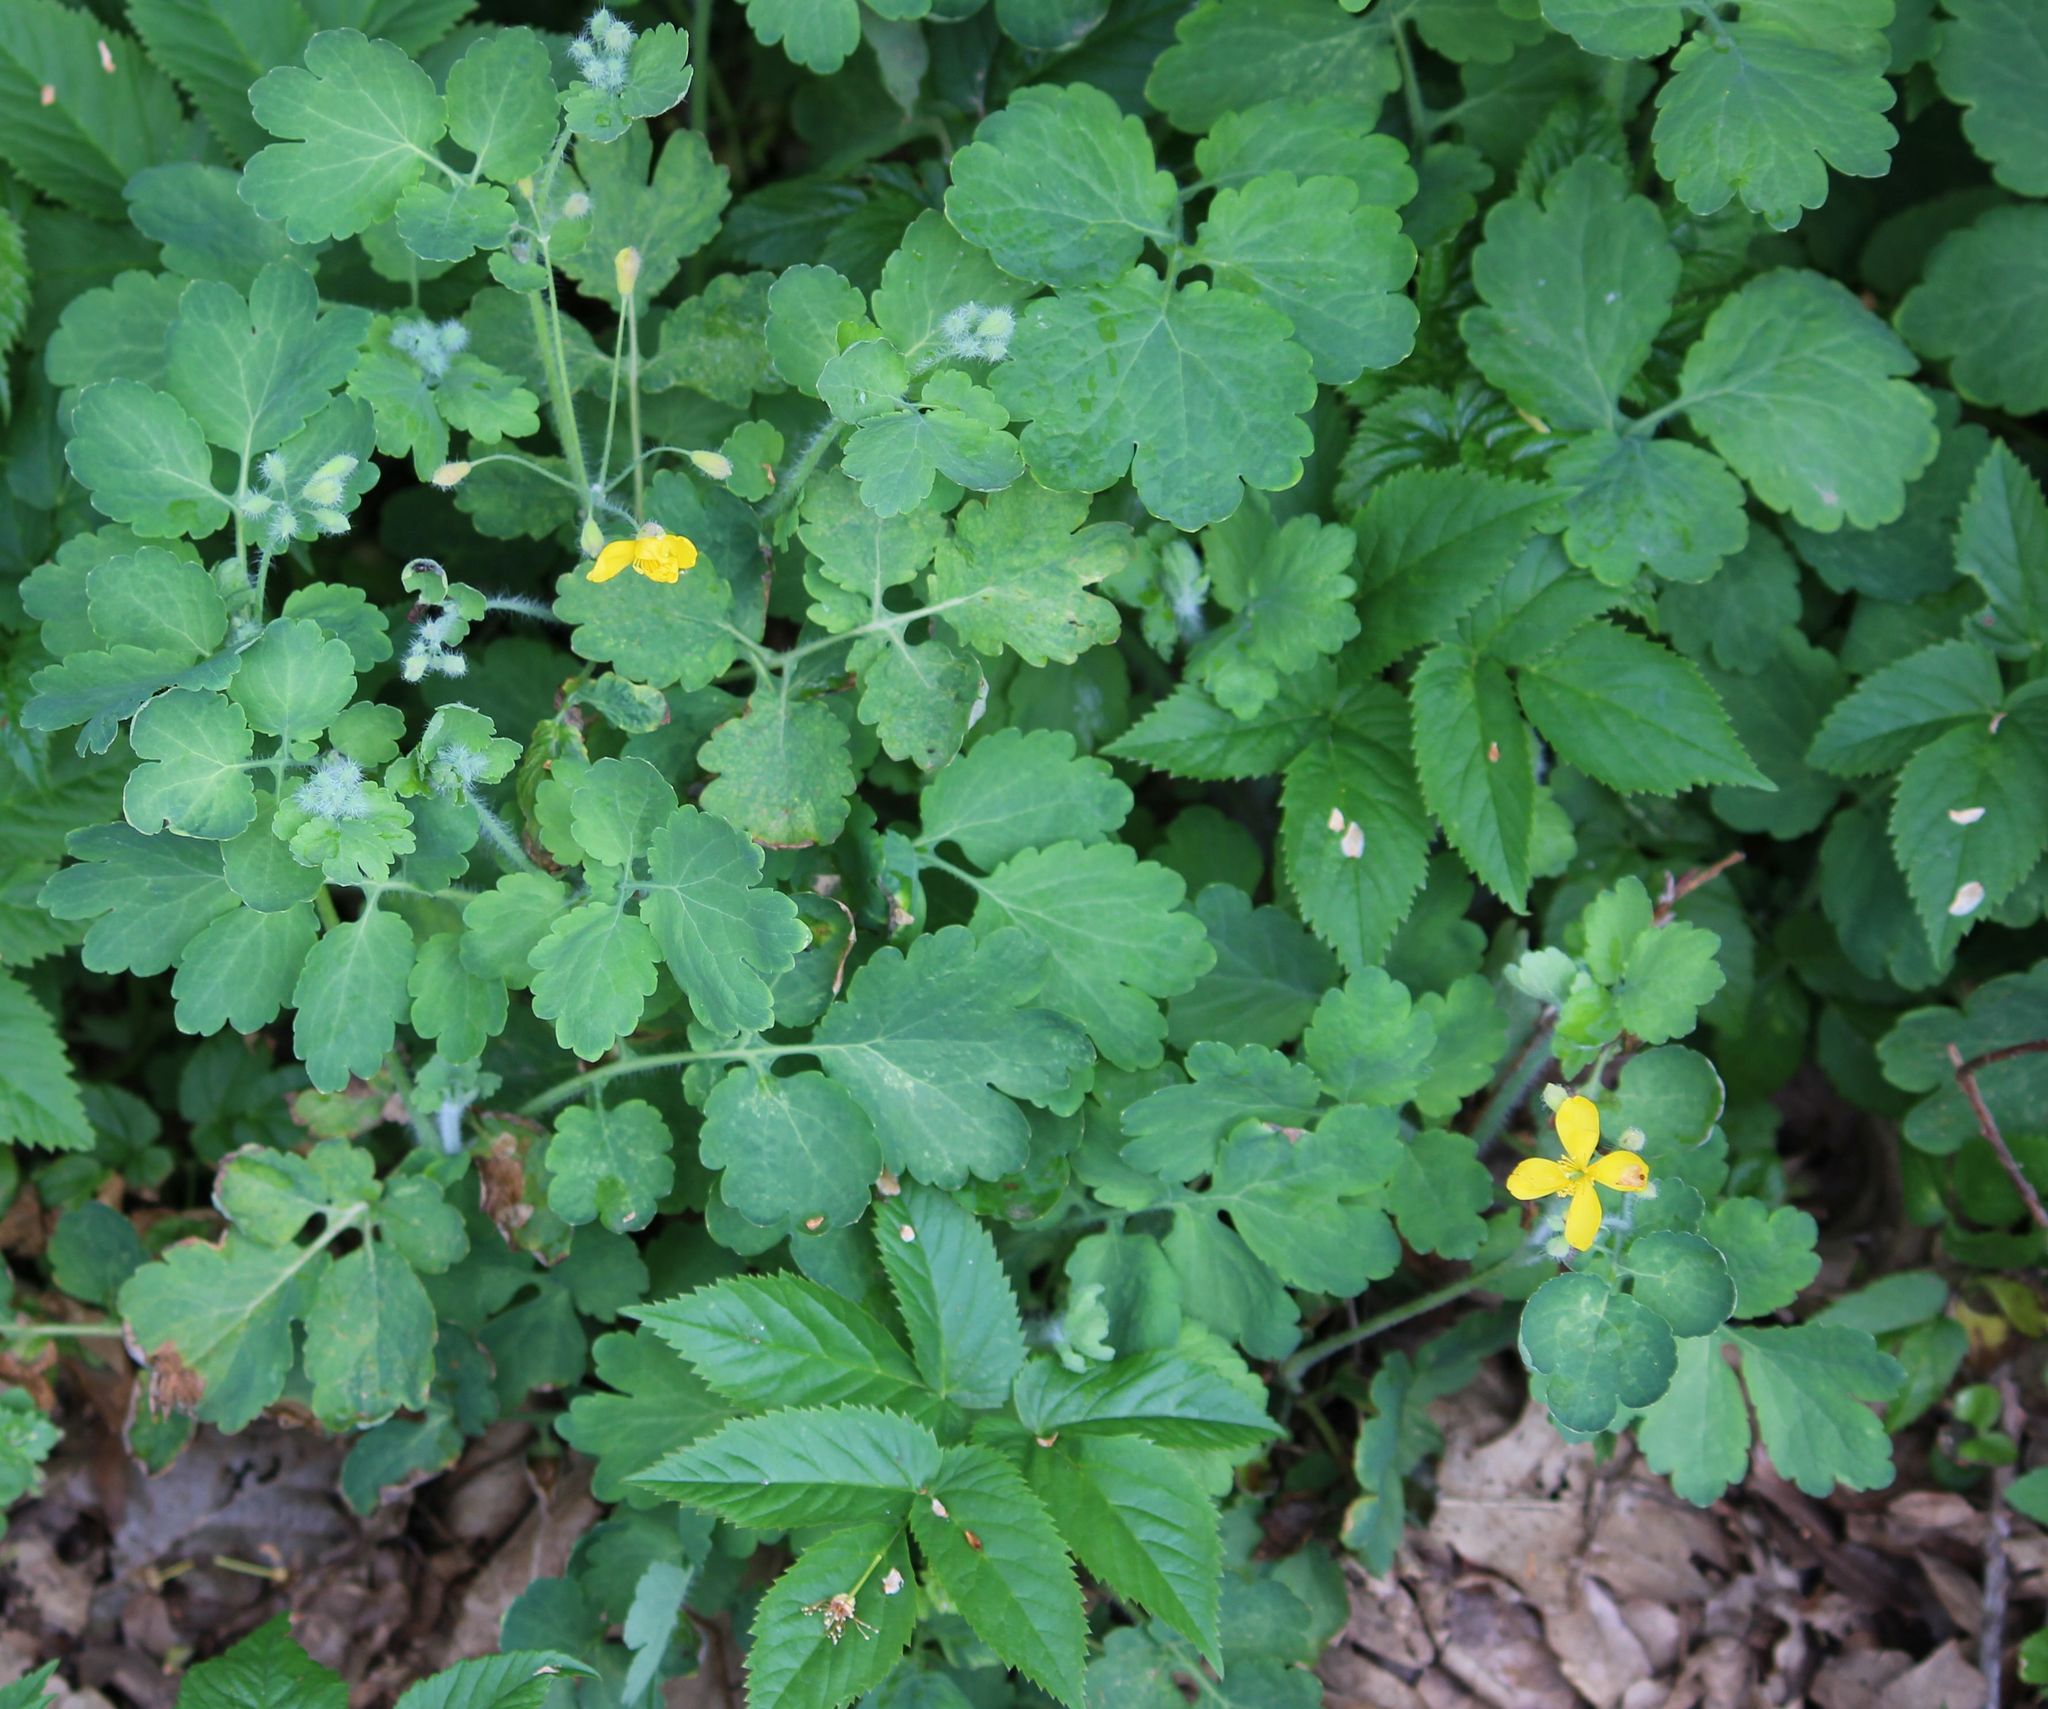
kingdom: Plantae
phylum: Tracheophyta
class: Magnoliopsida
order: Ranunculales
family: Papaveraceae
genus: Chelidonium
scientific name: Chelidonium majus
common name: Greater celandine
